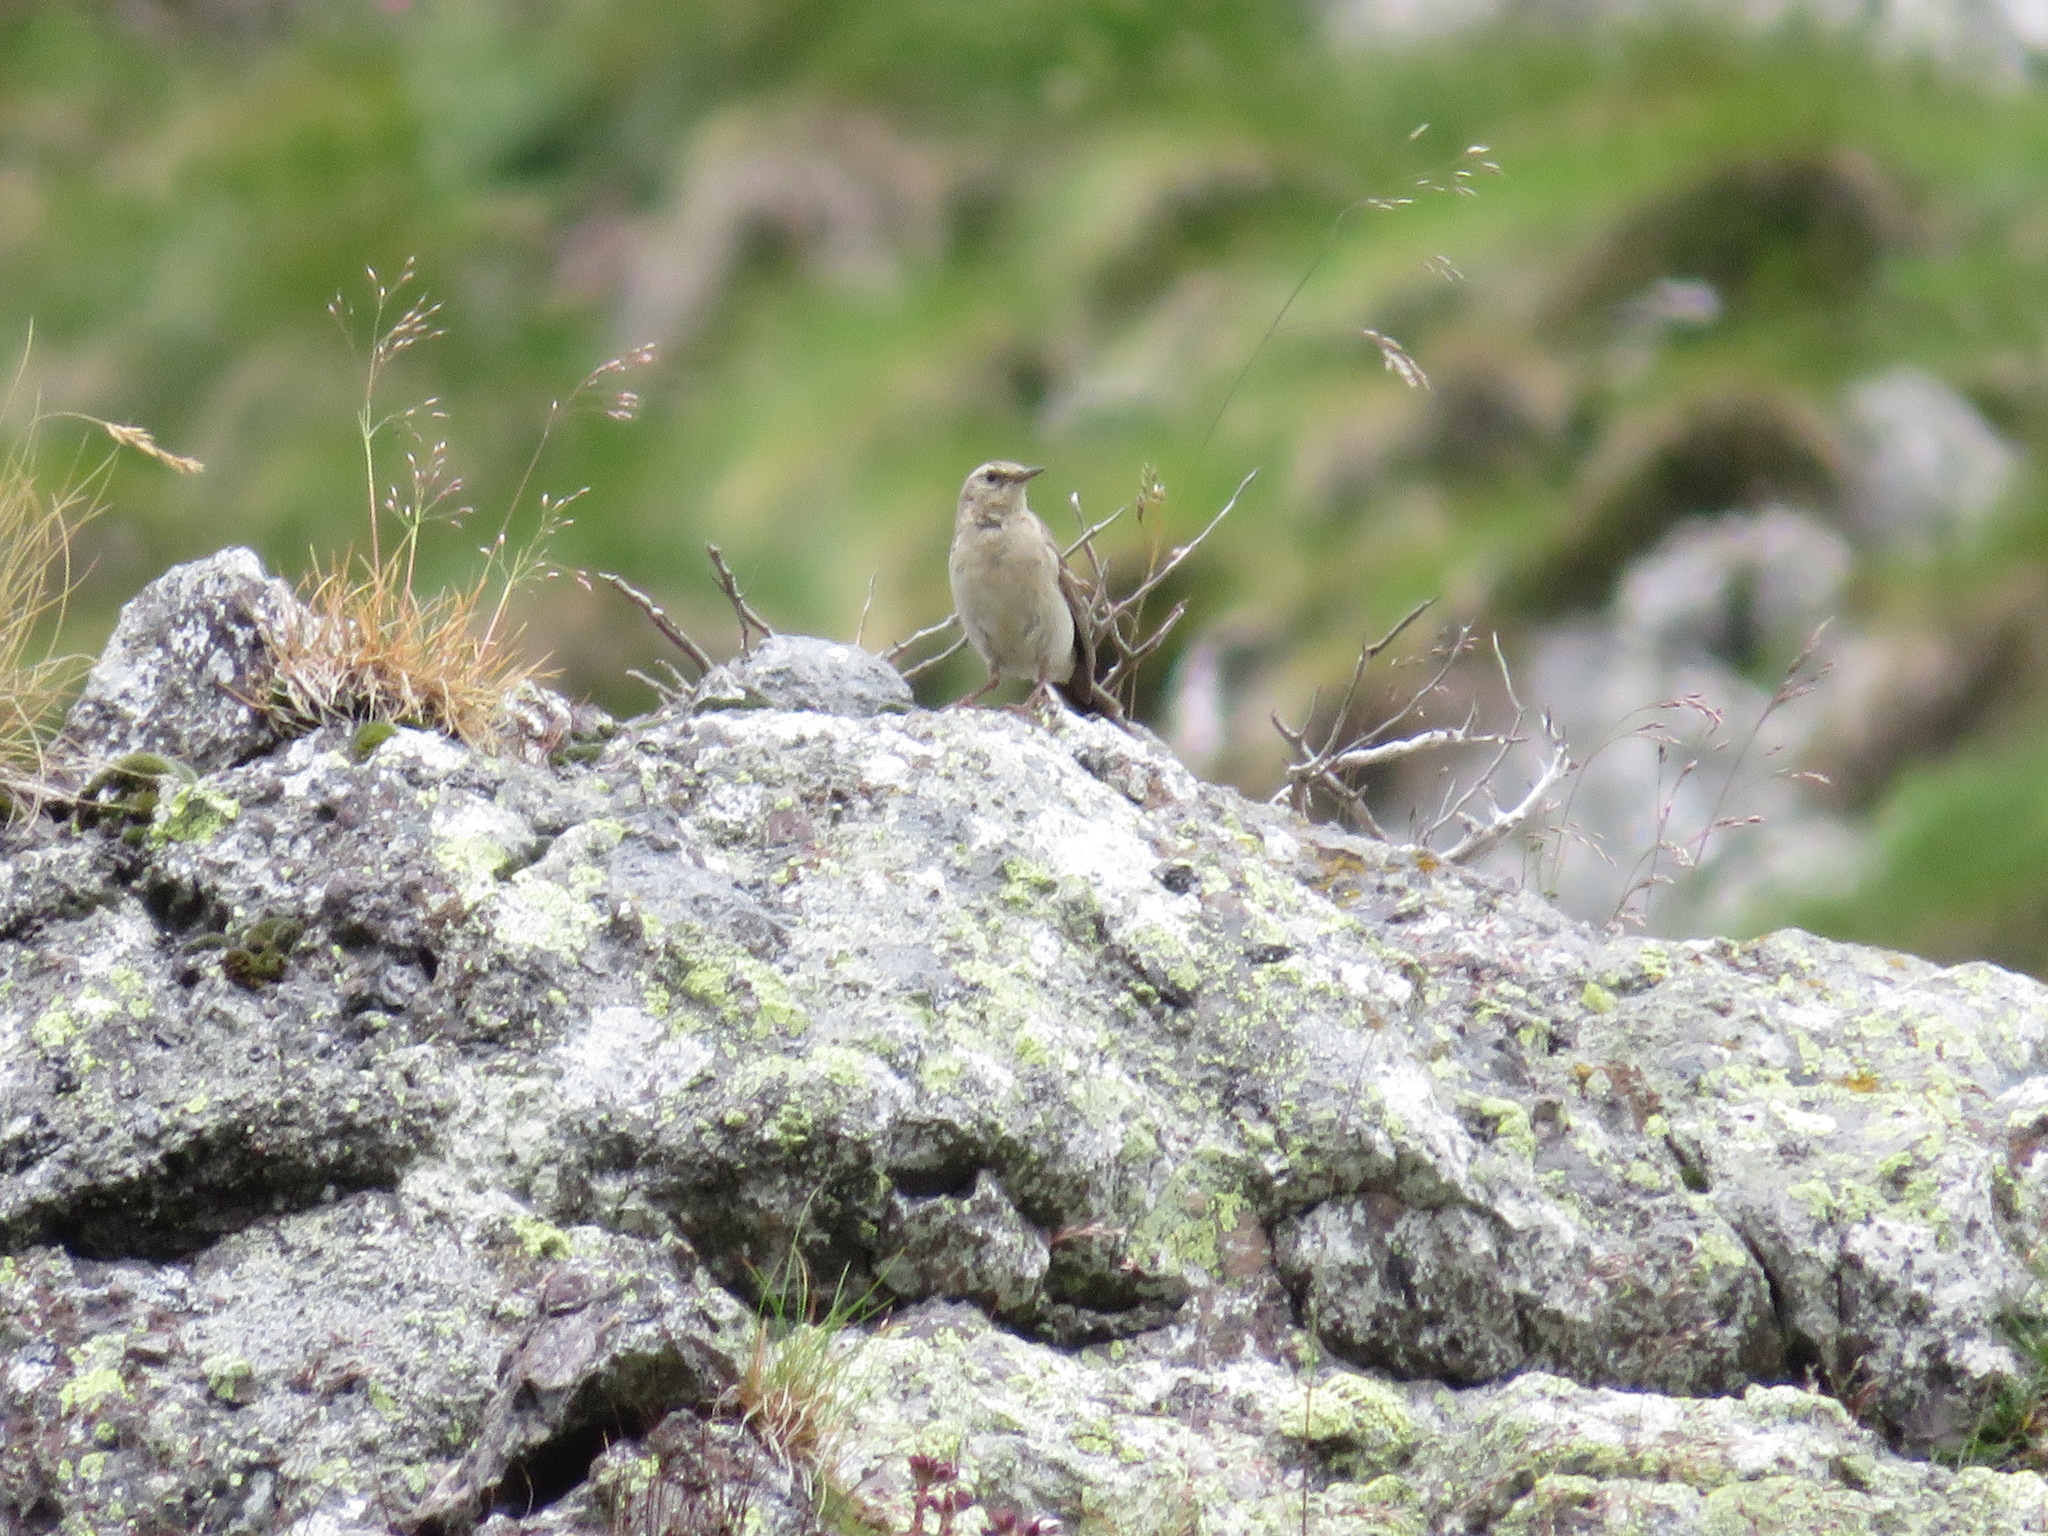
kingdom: Animalia
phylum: Chordata
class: Aves
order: Passeriformes
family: Muscicapidae
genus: Oenanthe
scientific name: Oenanthe oenanthe
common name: Northern wheatear
